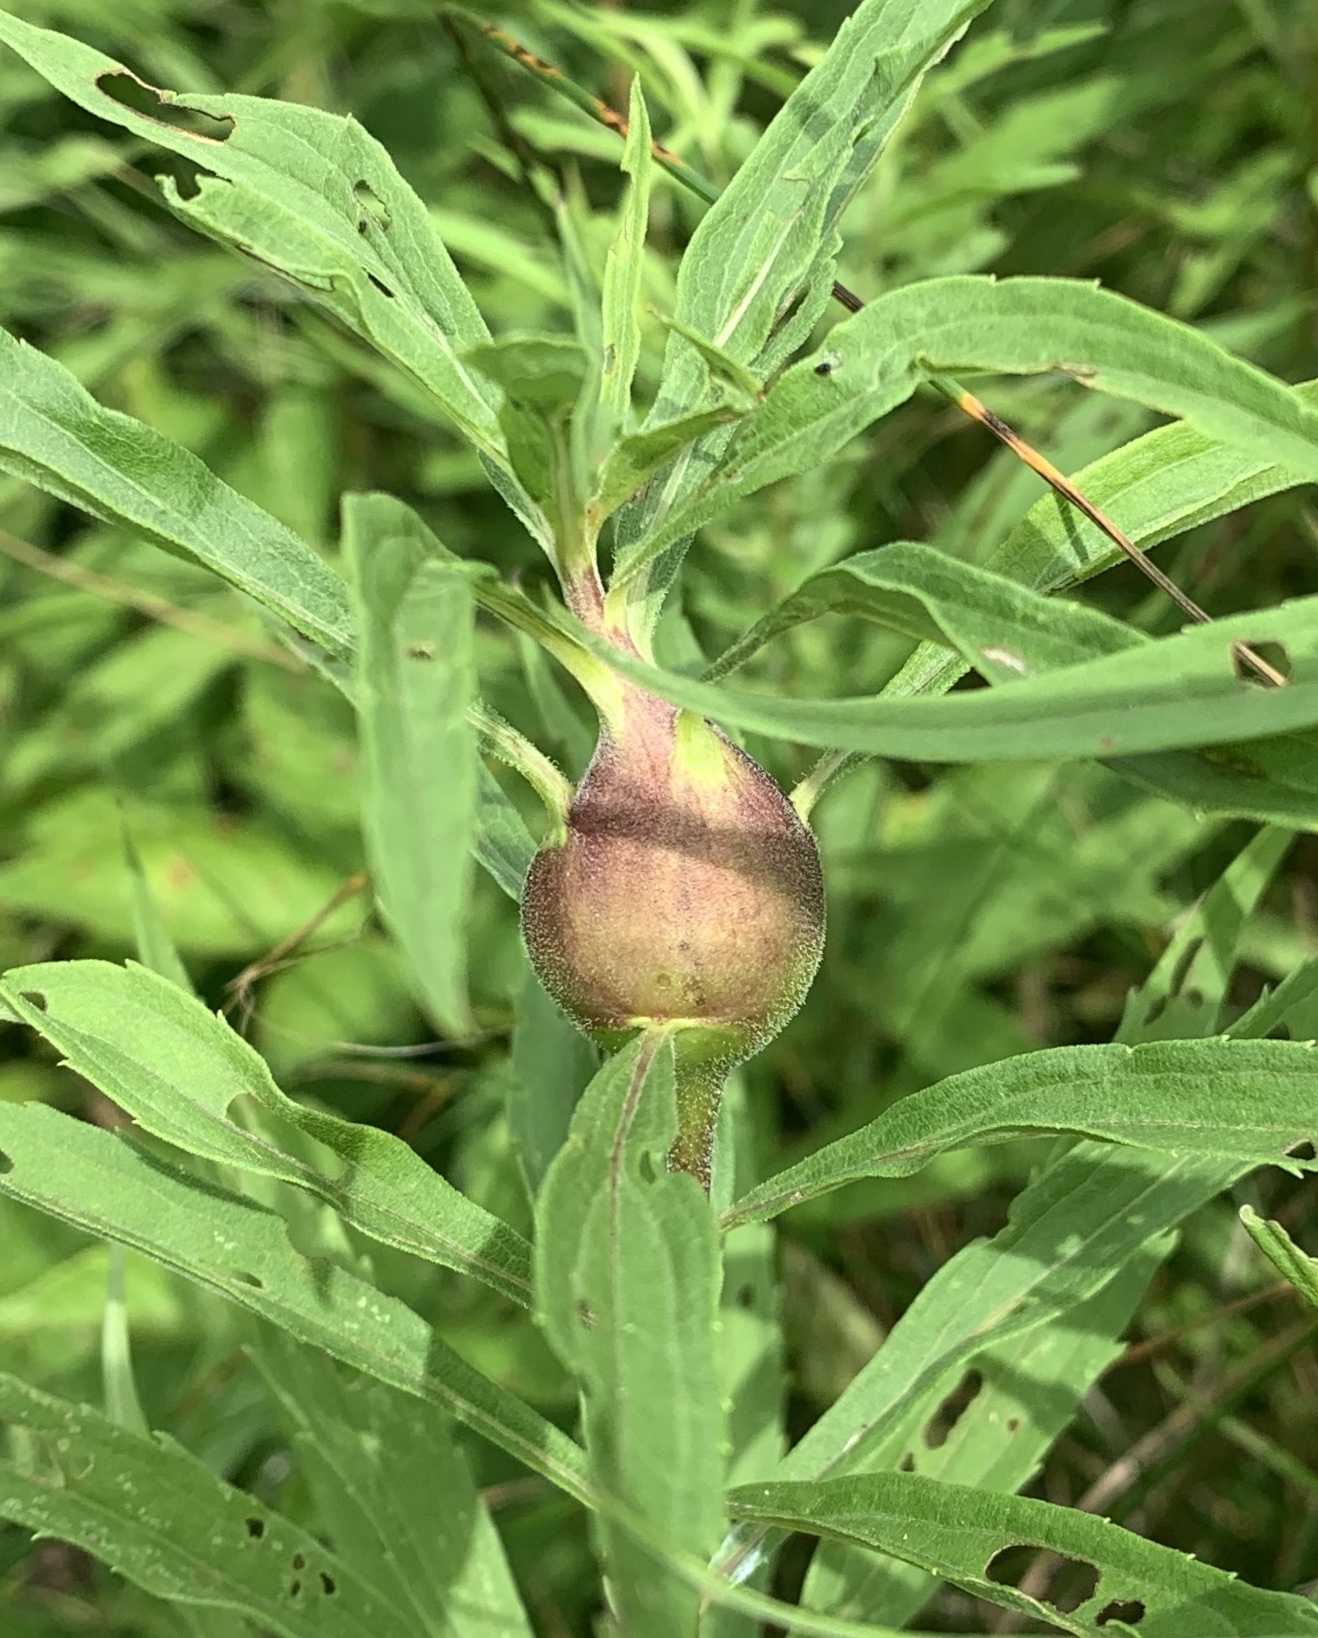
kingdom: Animalia
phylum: Arthropoda
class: Insecta
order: Diptera
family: Tephritidae
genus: Eurosta
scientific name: Eurosta solidaginis
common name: Goldenrod gall fly
